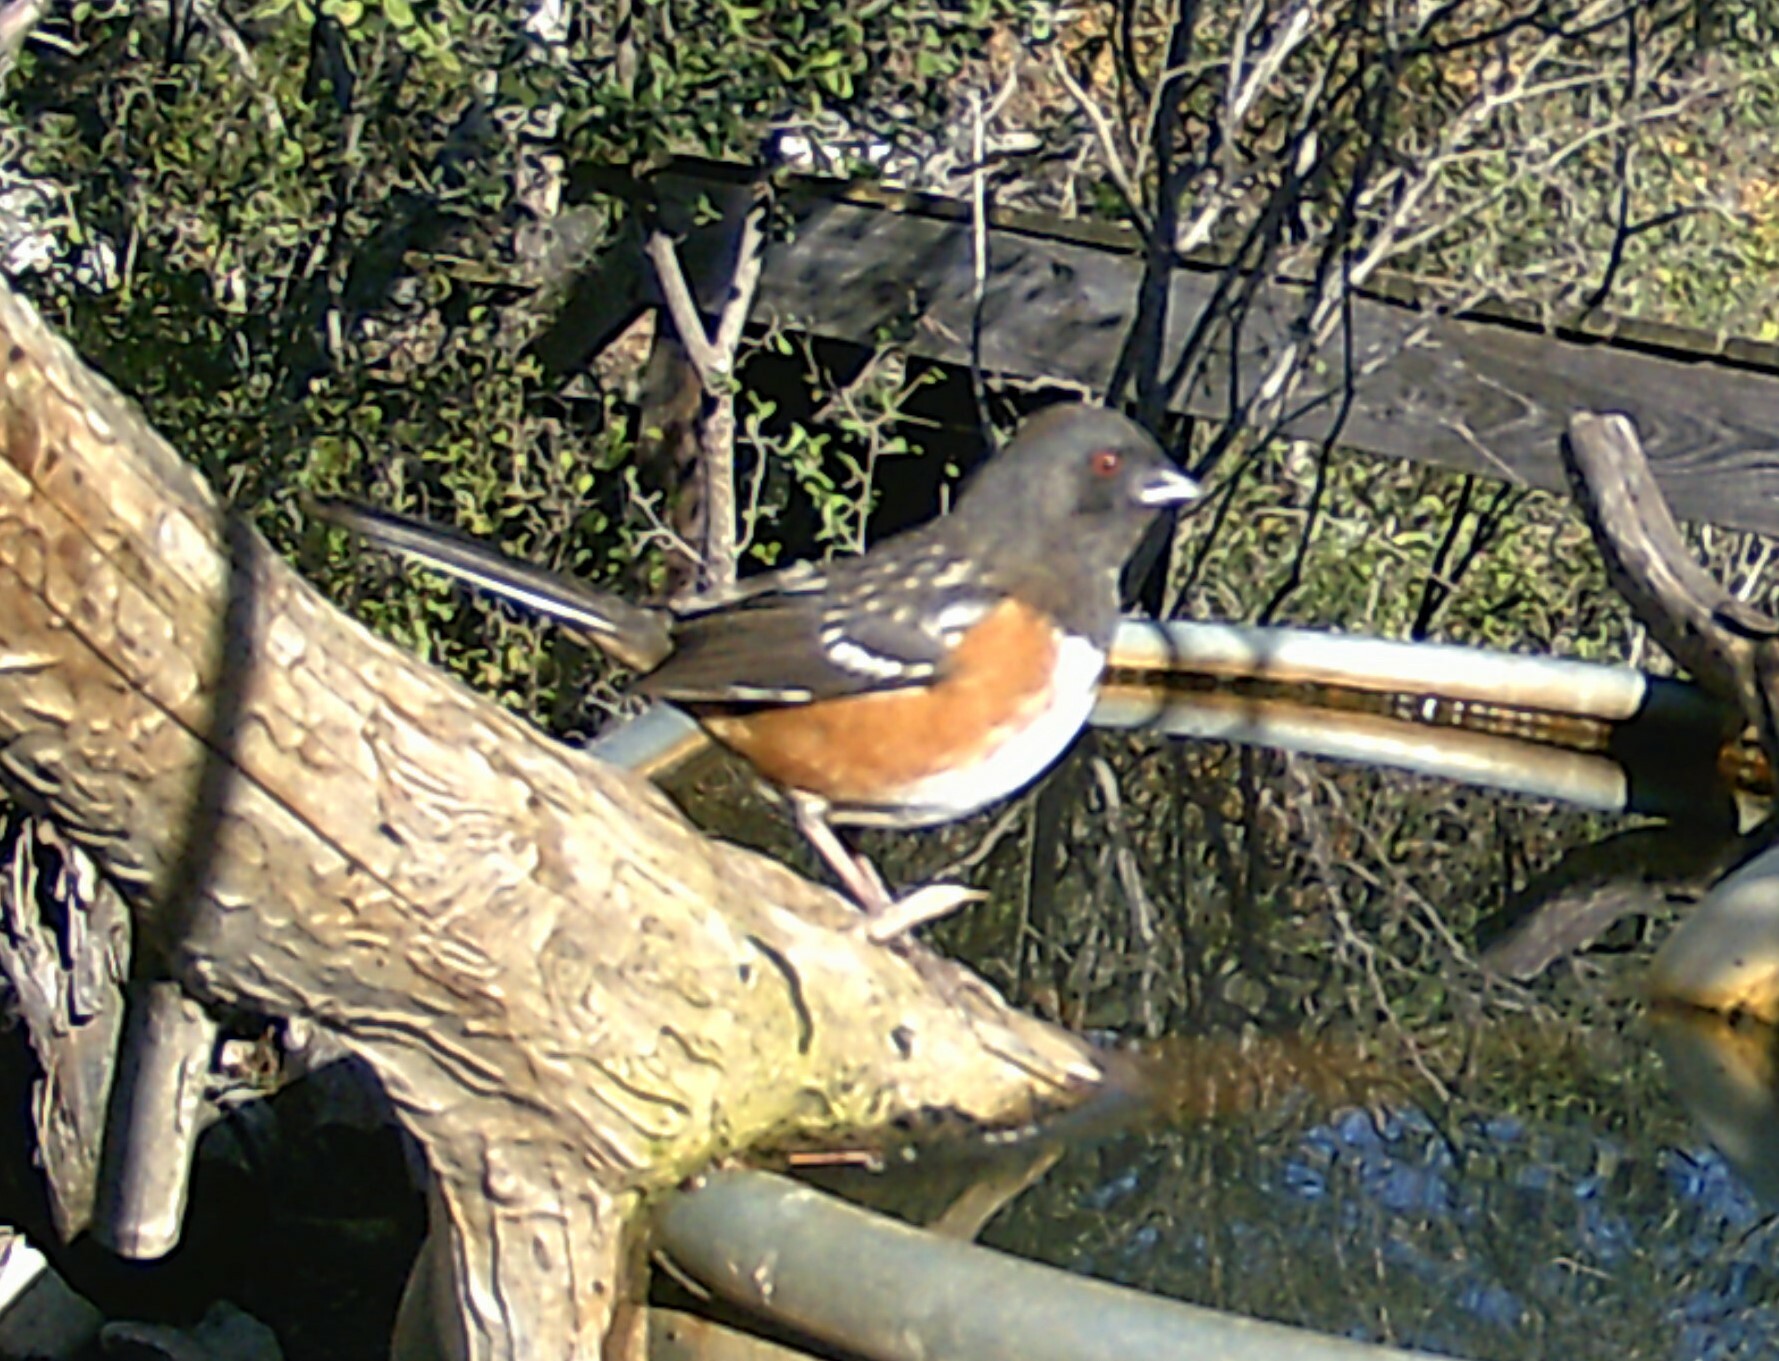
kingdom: Animalia
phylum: Chordata
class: Aves
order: Passeriformes
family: Passerellidae
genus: Pipilo
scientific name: Pipilo maculatus
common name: Spotted towhee
